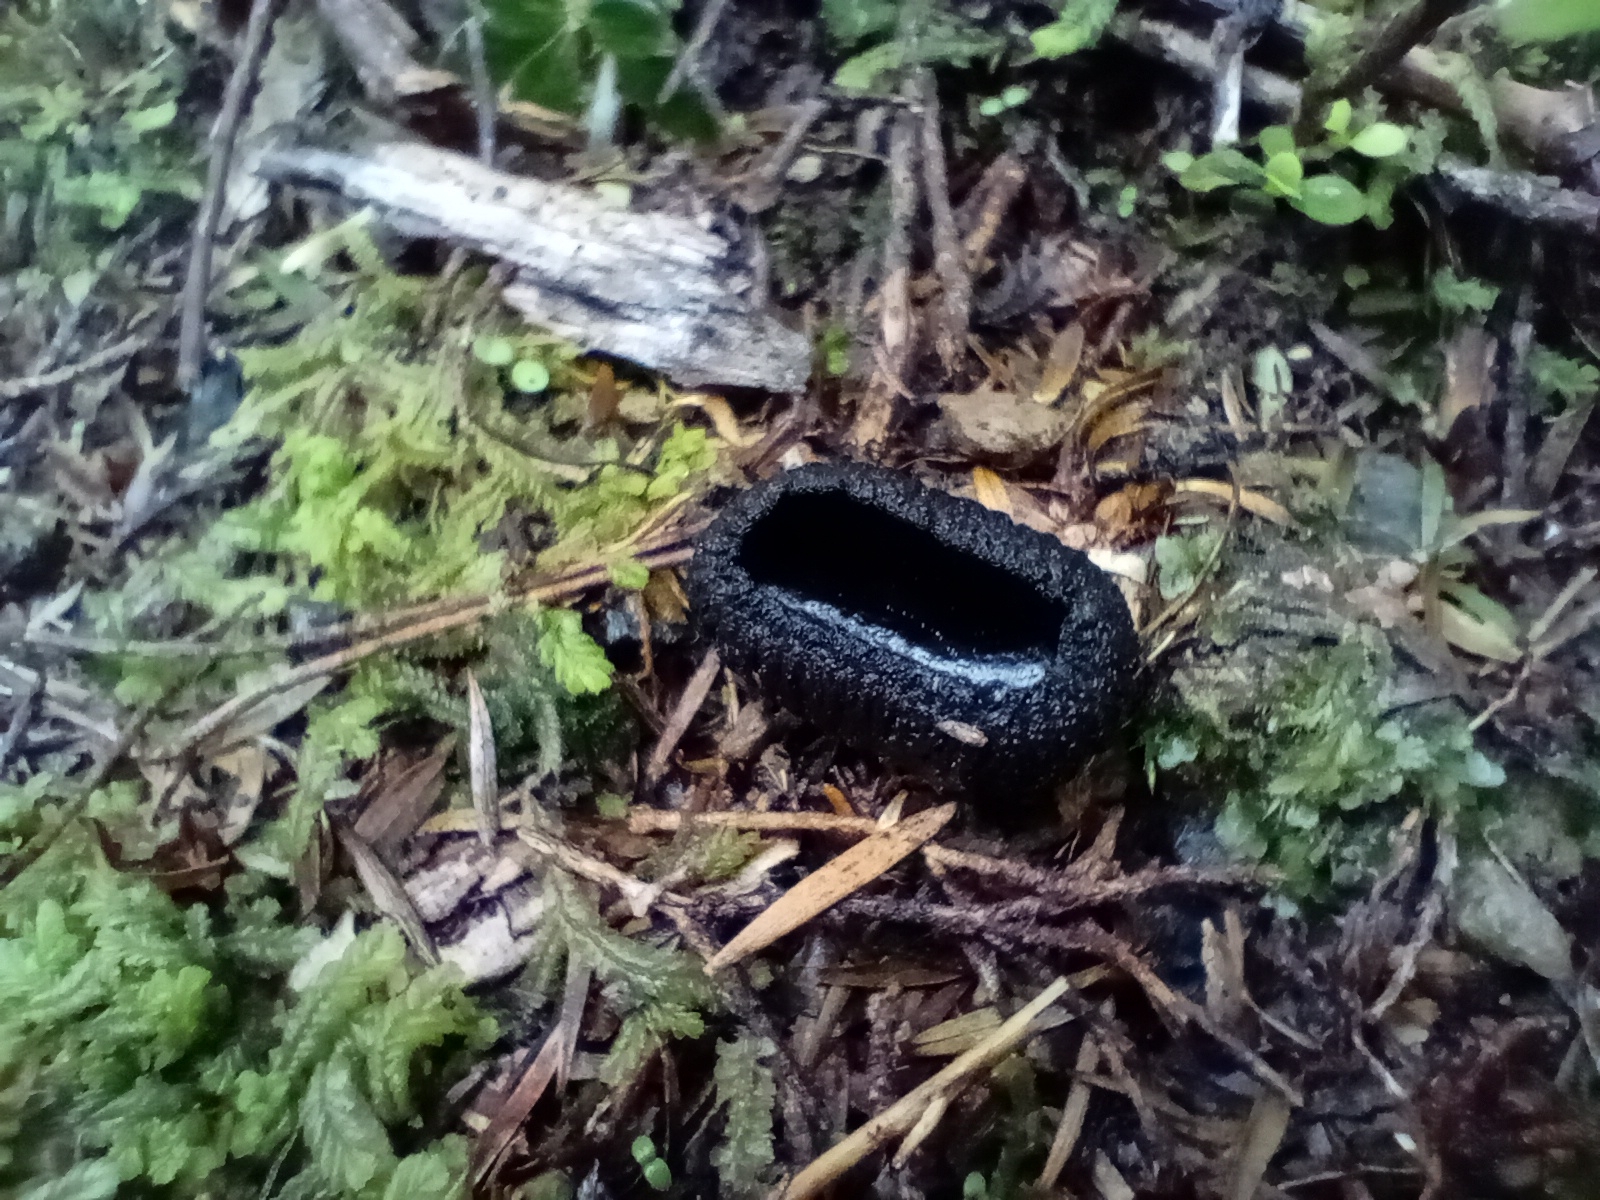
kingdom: Fungi
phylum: Ascomycota
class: Pezizomycetes
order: Pezizales
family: Sarcosomataceae
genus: Plectania
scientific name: Plectania rhytidia
